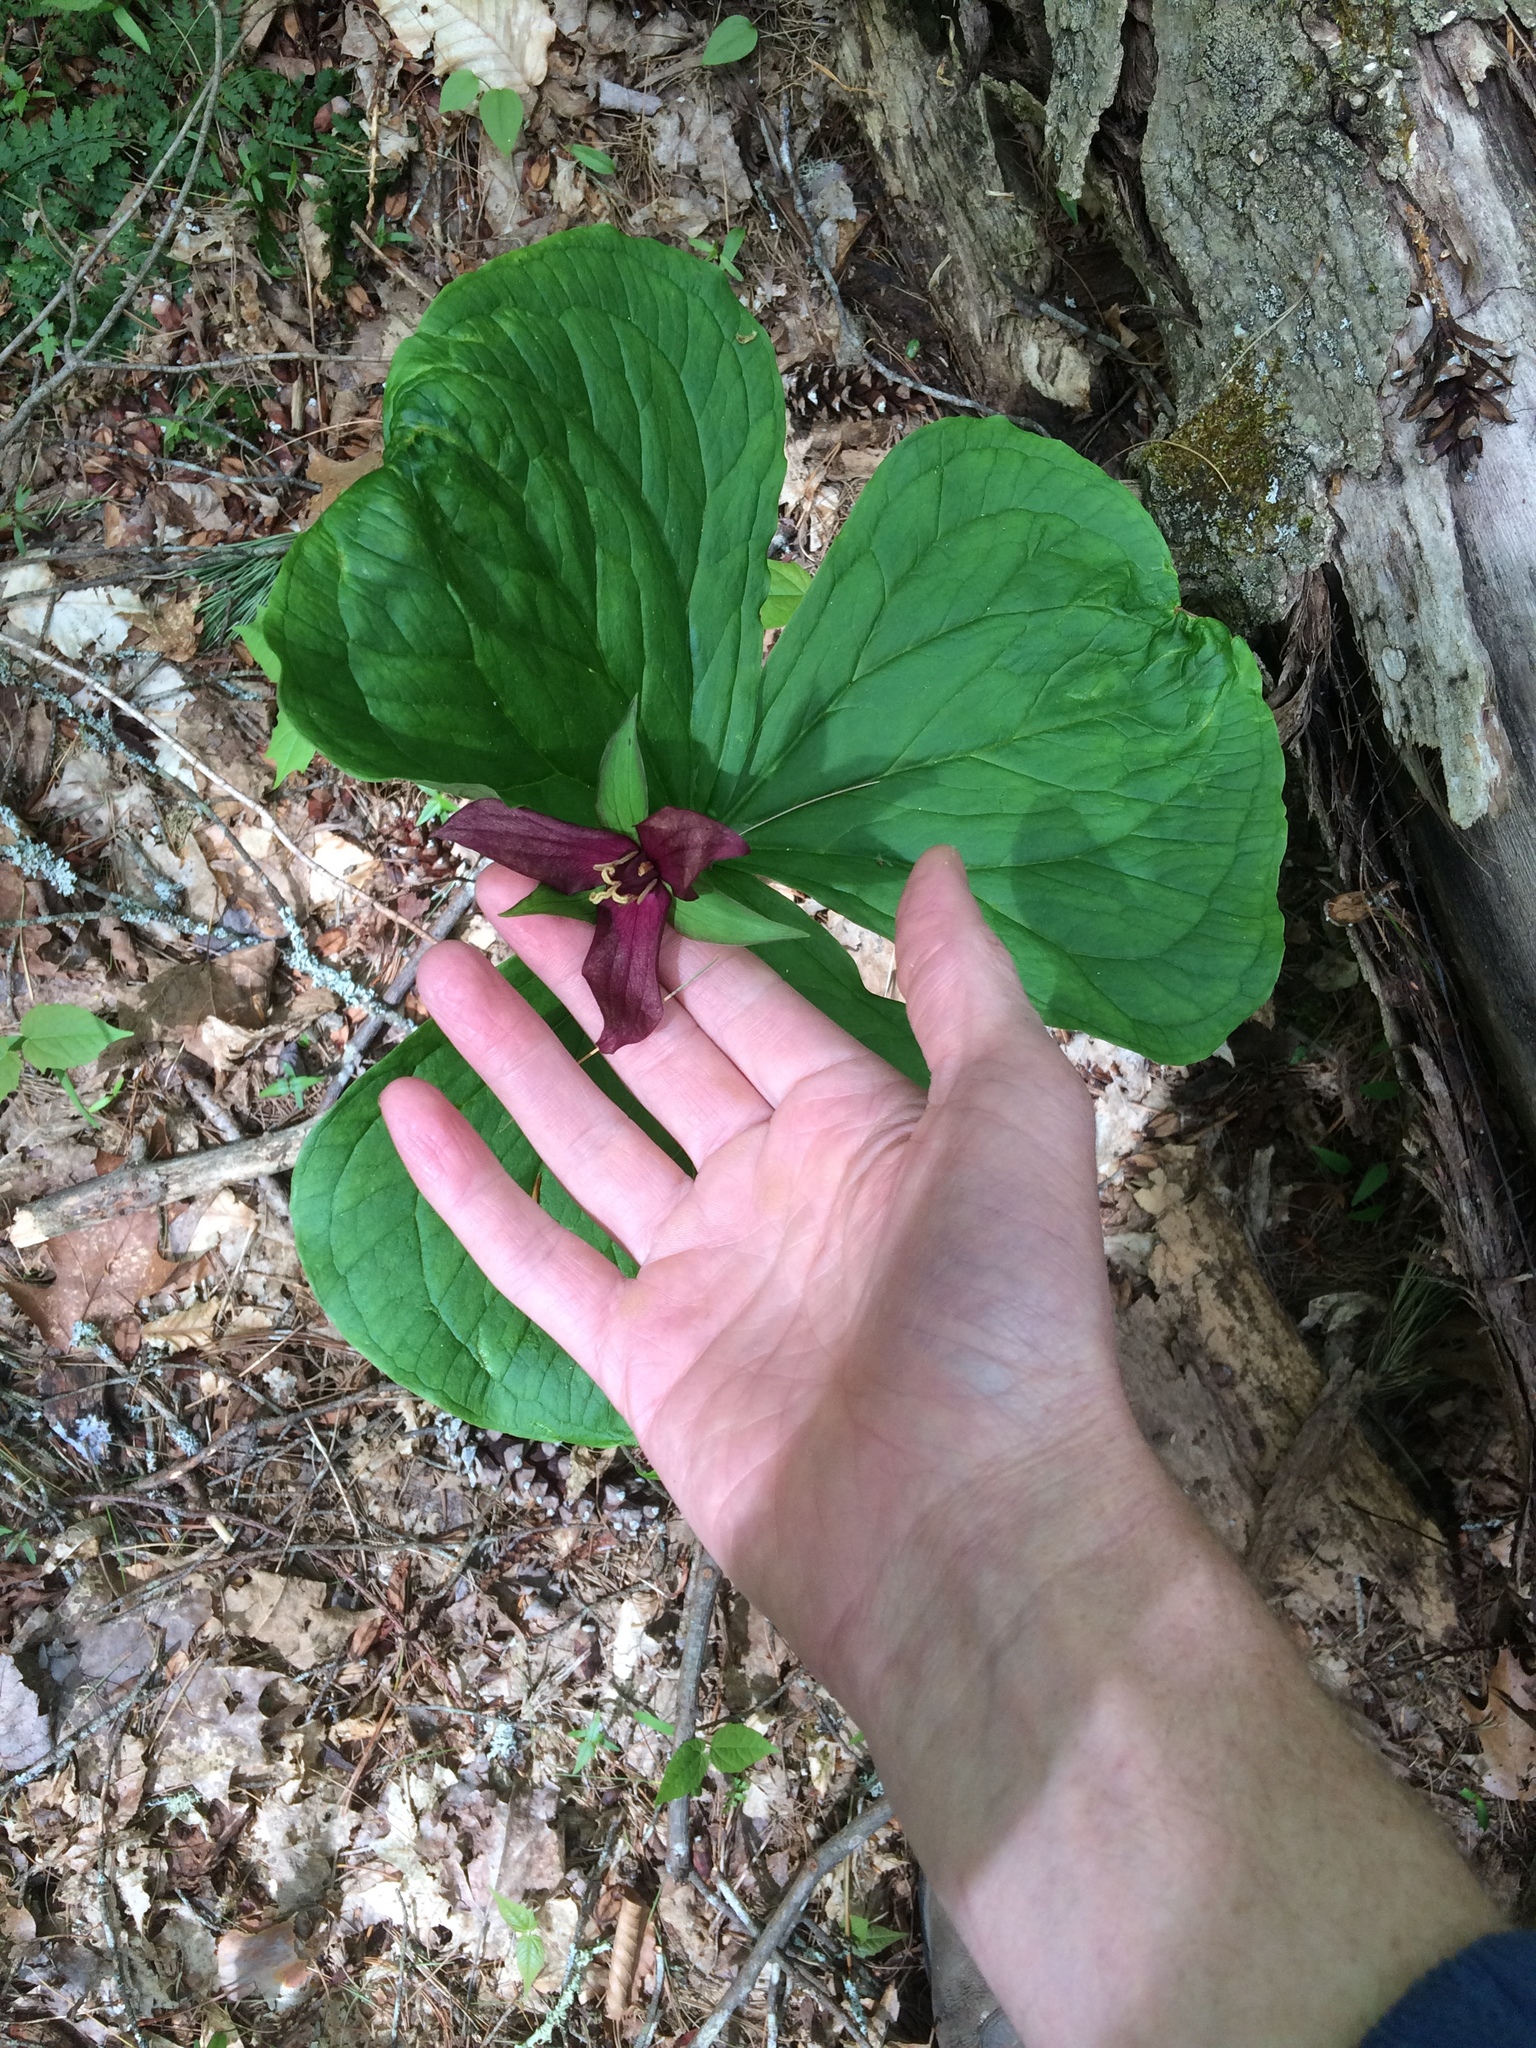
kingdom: Plantae
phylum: Tracheophyta
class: Liliopsida
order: Liliales
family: Melanthiaceae
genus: Trillium
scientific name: Trillium erectum
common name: Purple trillium
